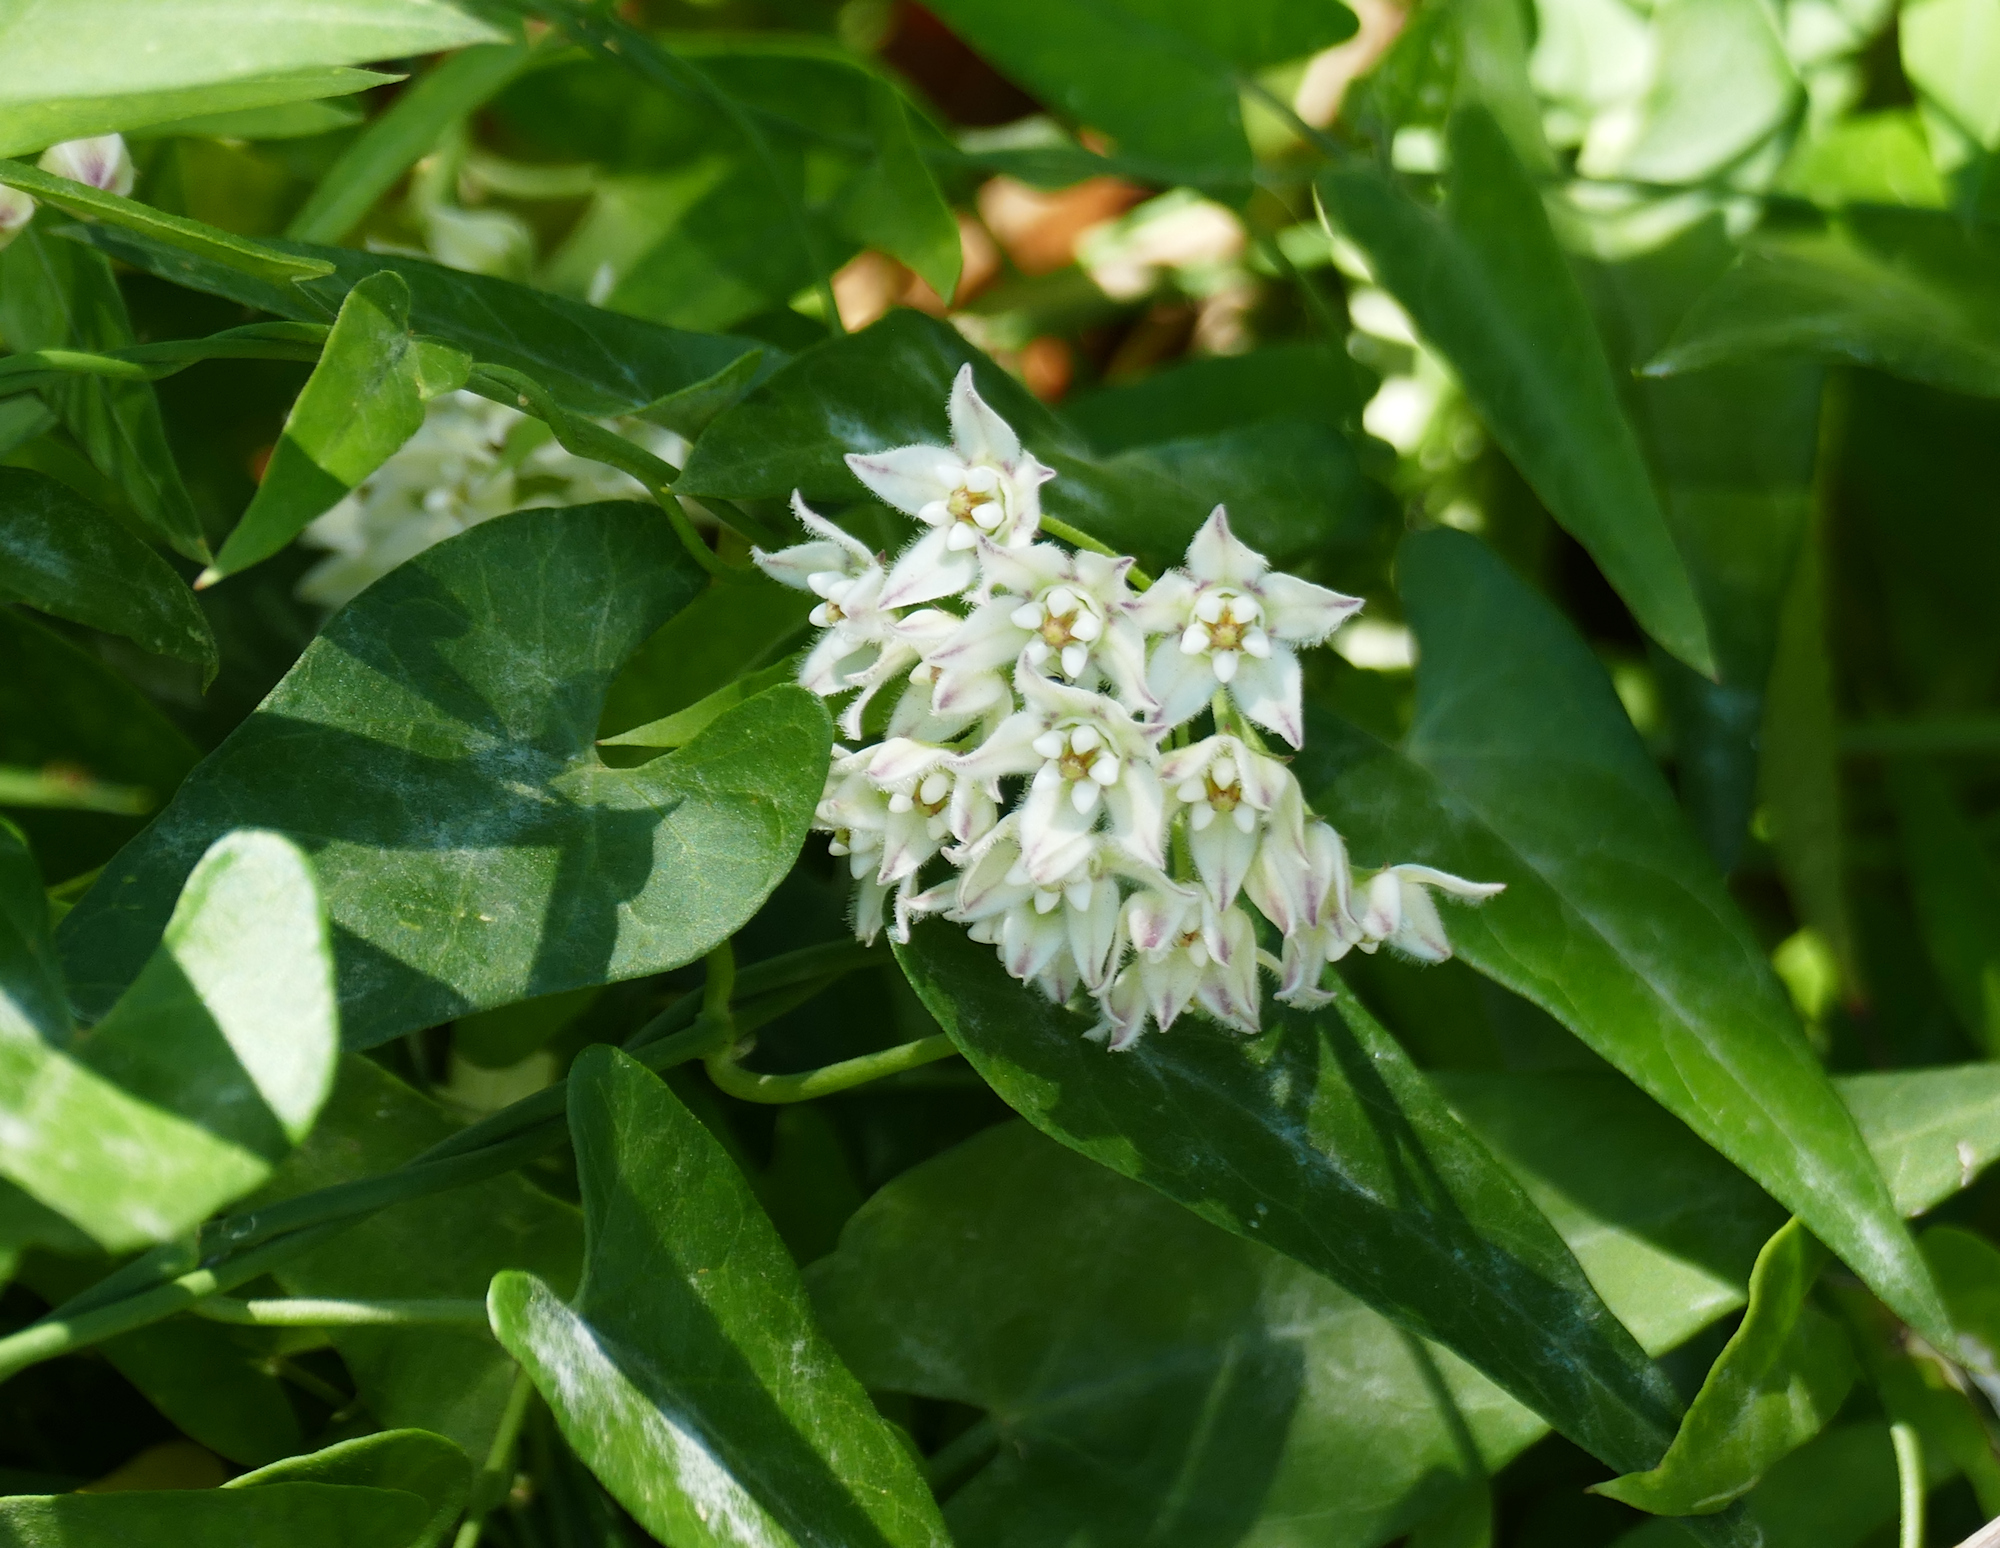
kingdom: Plantae
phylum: Tracheophyta
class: Magnoliopsida
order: Gentianales
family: Apocynaceae
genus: Funastrum
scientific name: Funastrum cynanchoides
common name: Climbing-milkweed
